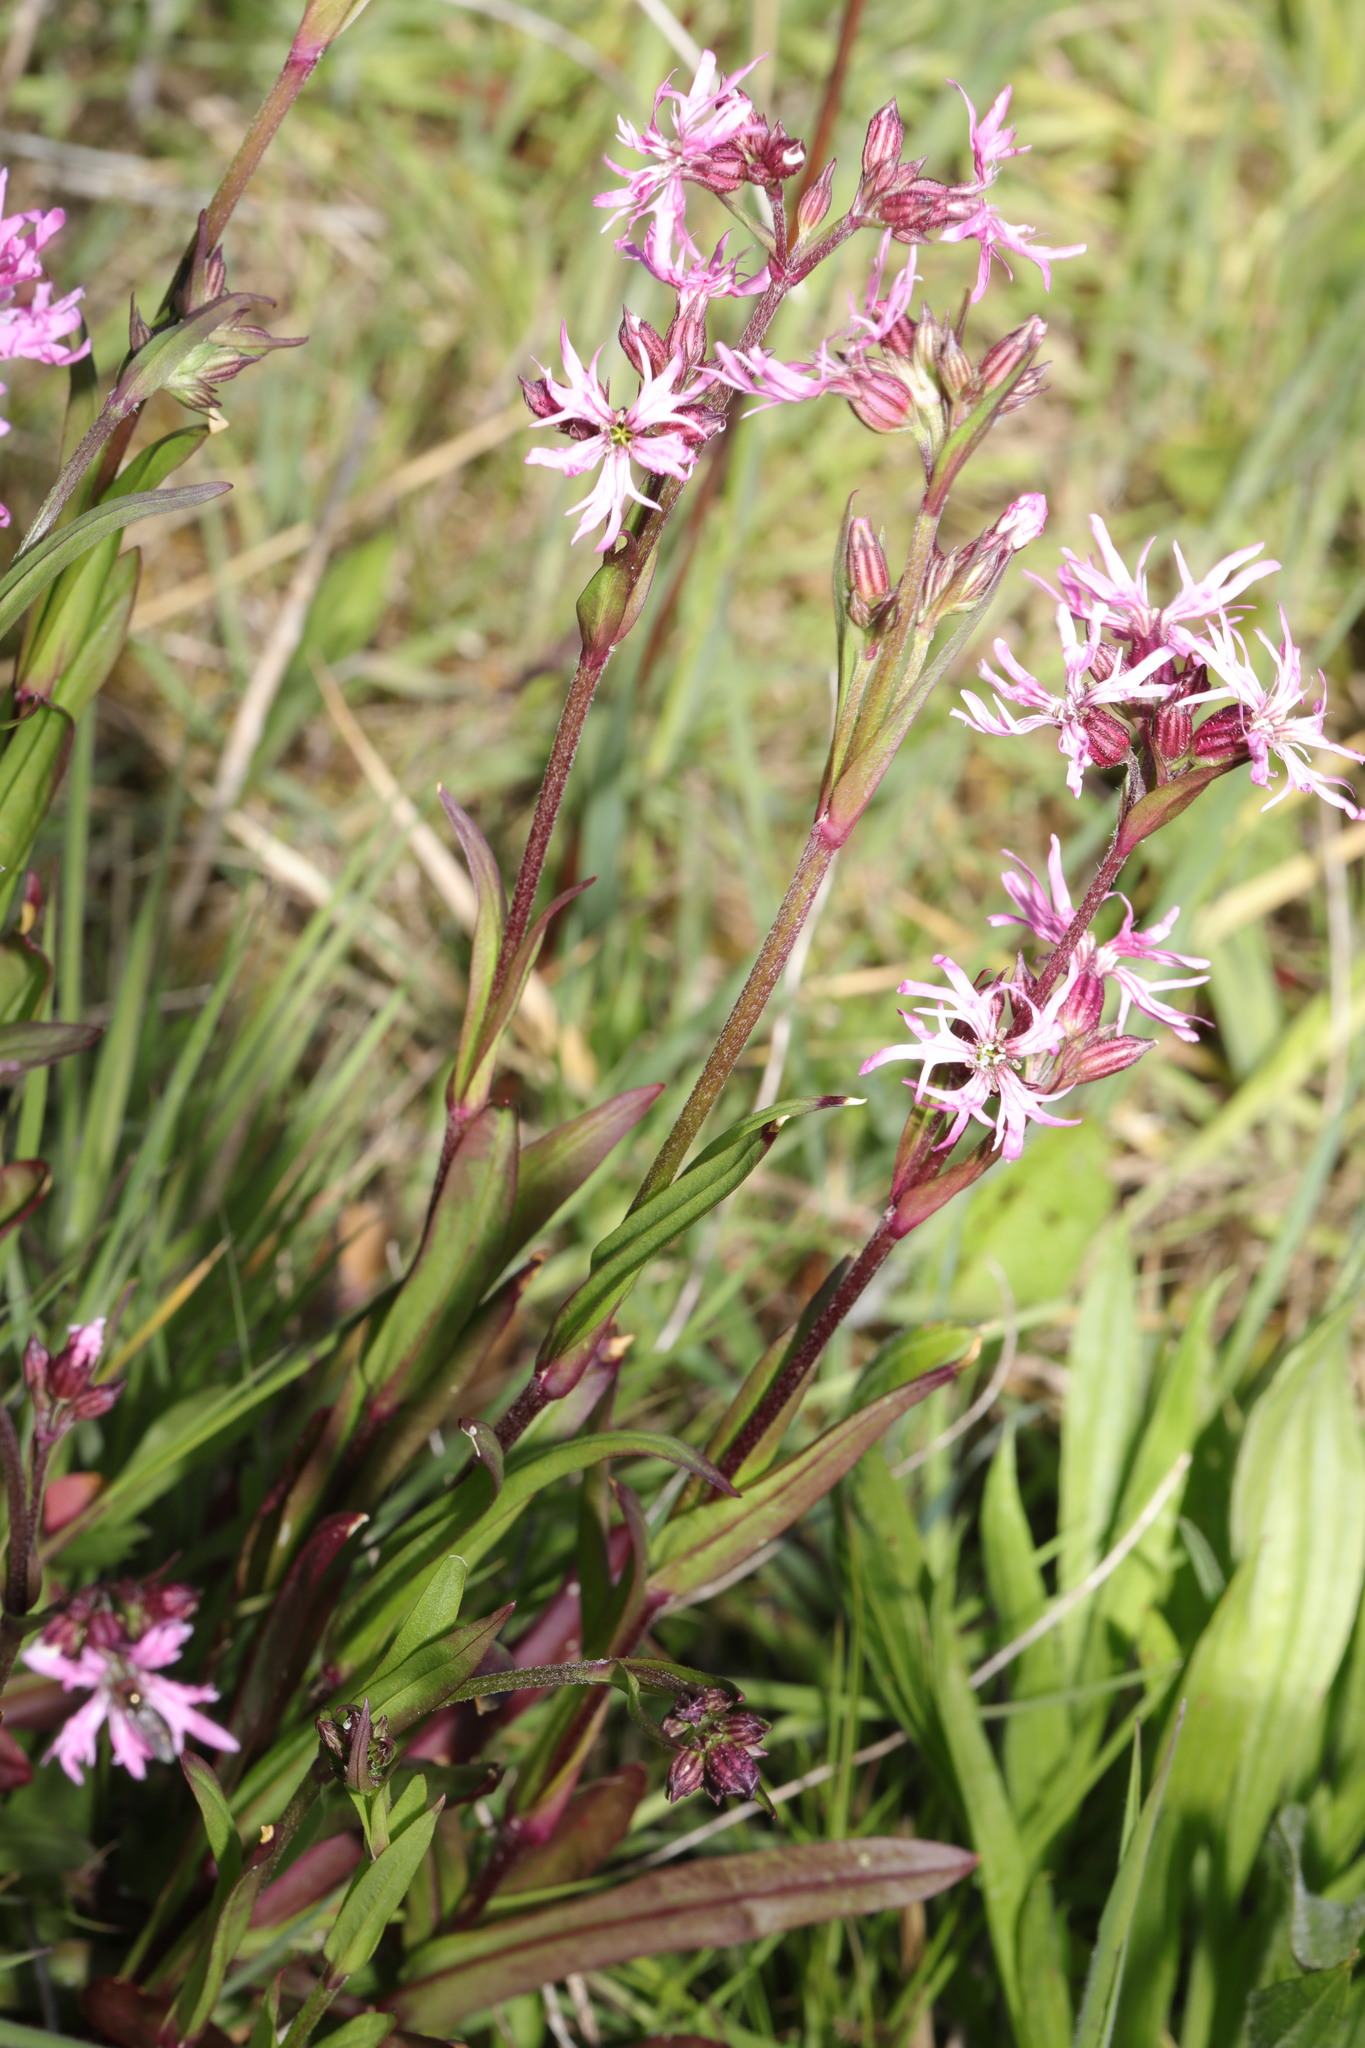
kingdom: Plantae
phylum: Tracheophyta
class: Magnoliopsida
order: Caryophyllales
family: Caryophyllaceae
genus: Silene
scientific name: Silene flos-cuculi
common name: Ragged-robin
